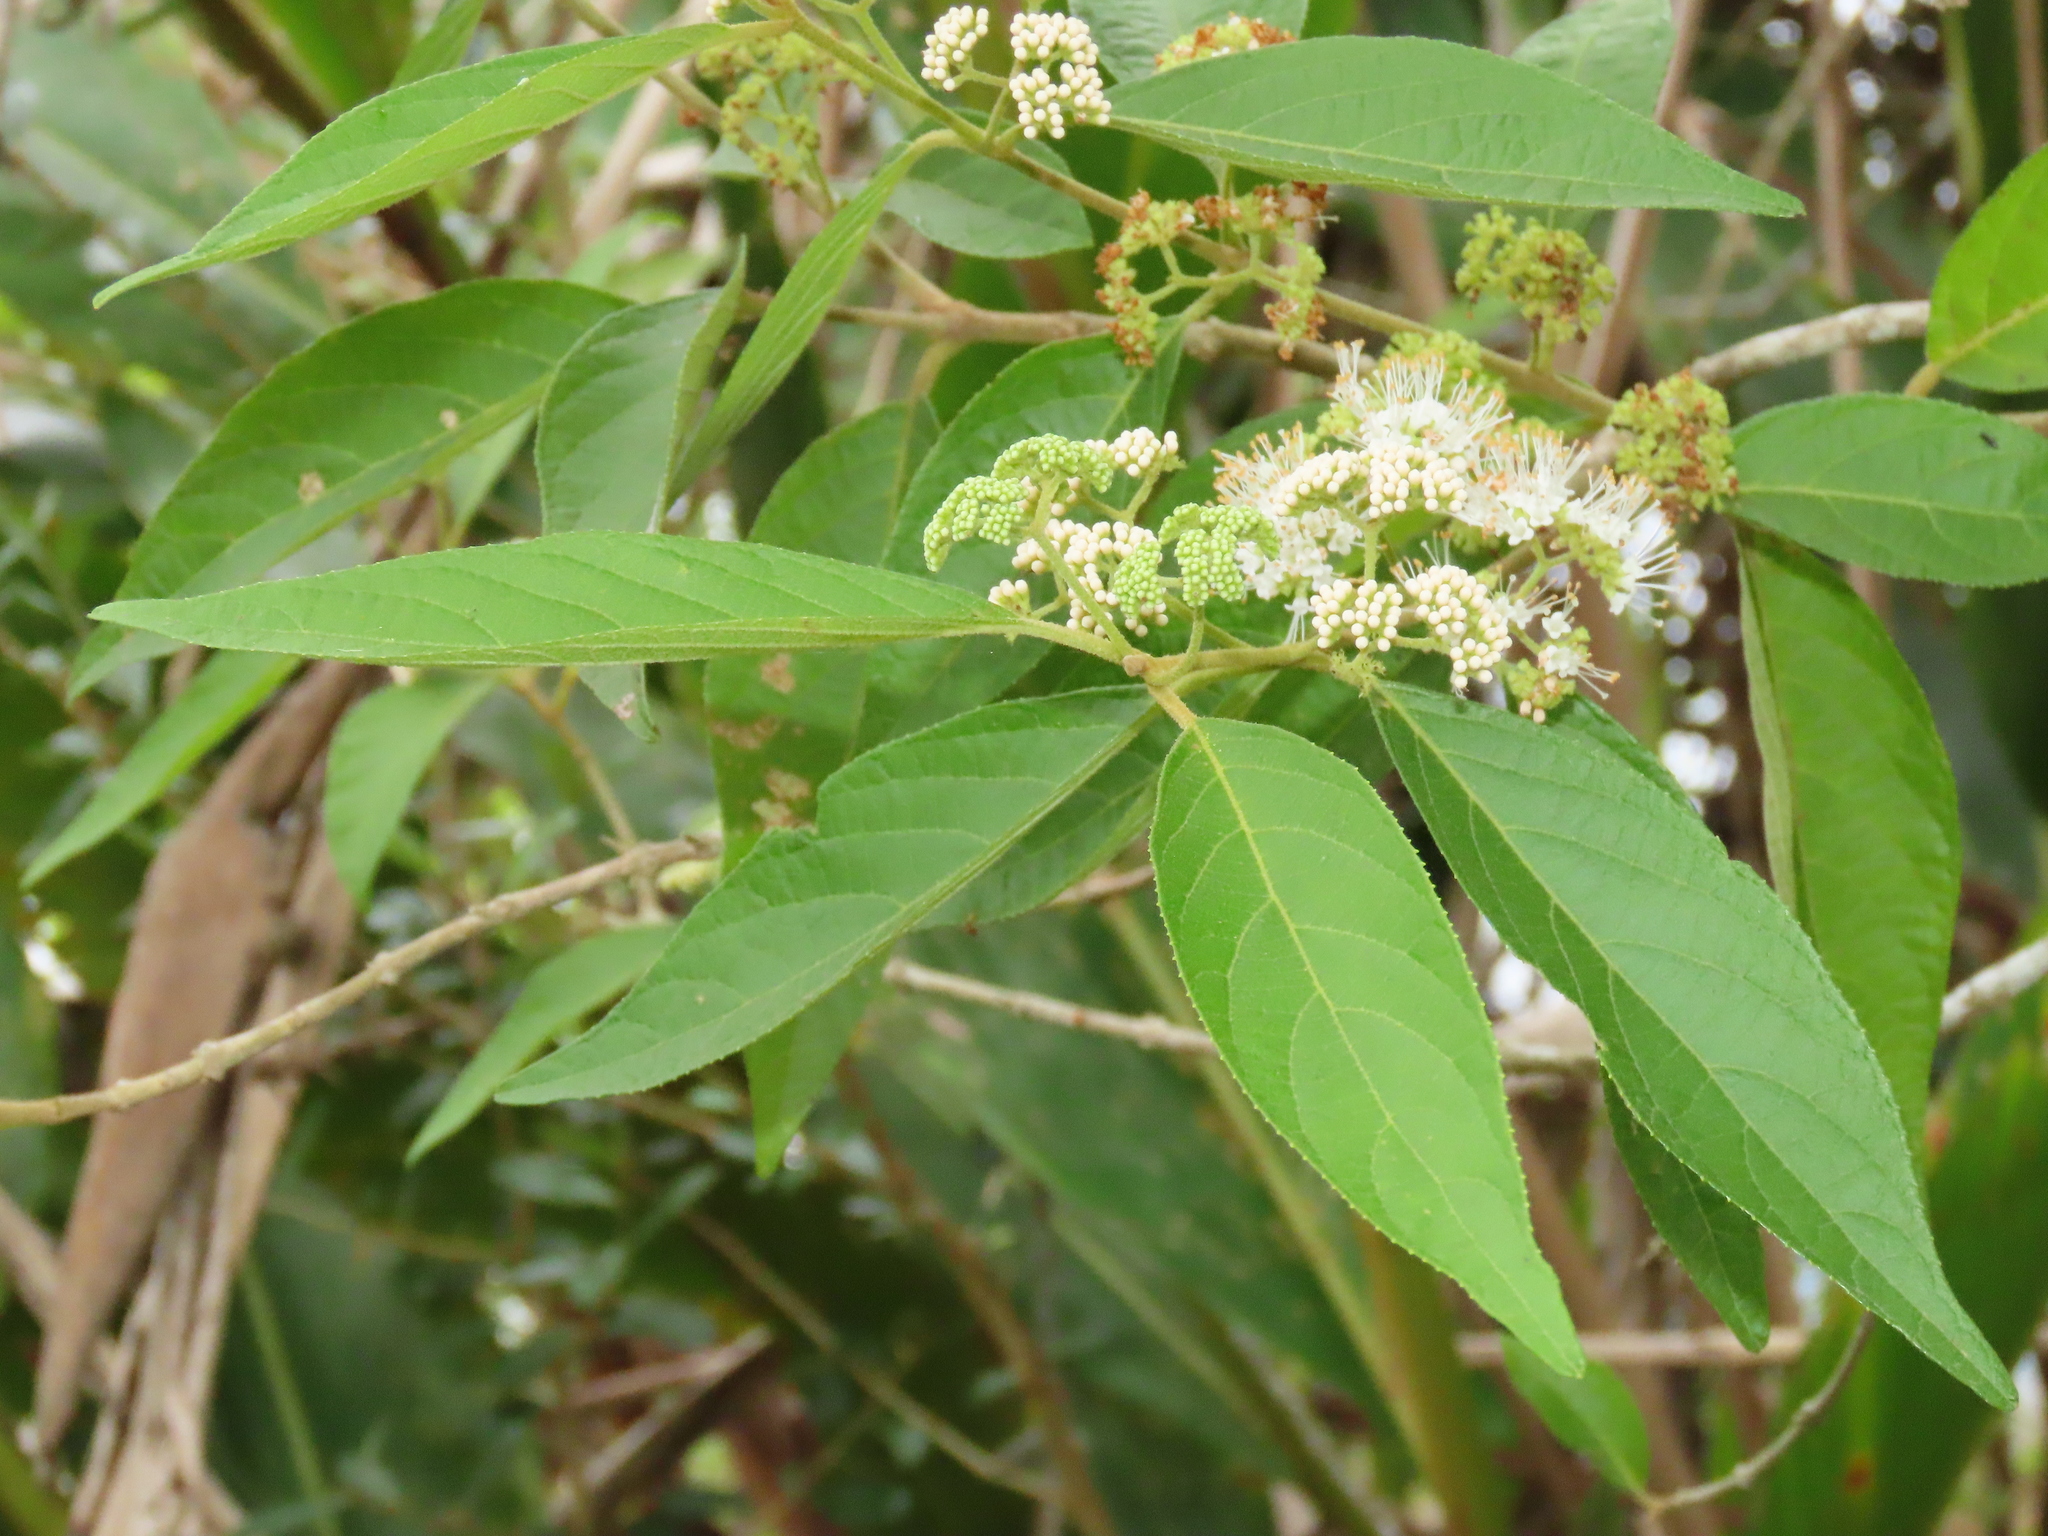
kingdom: Plantae
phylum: Tracheophyta
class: Magnoliopsida
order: Lamiales
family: Lamiaceae
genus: Callicarpa
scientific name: Callicarpa pedunculata
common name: Velvetleaf
